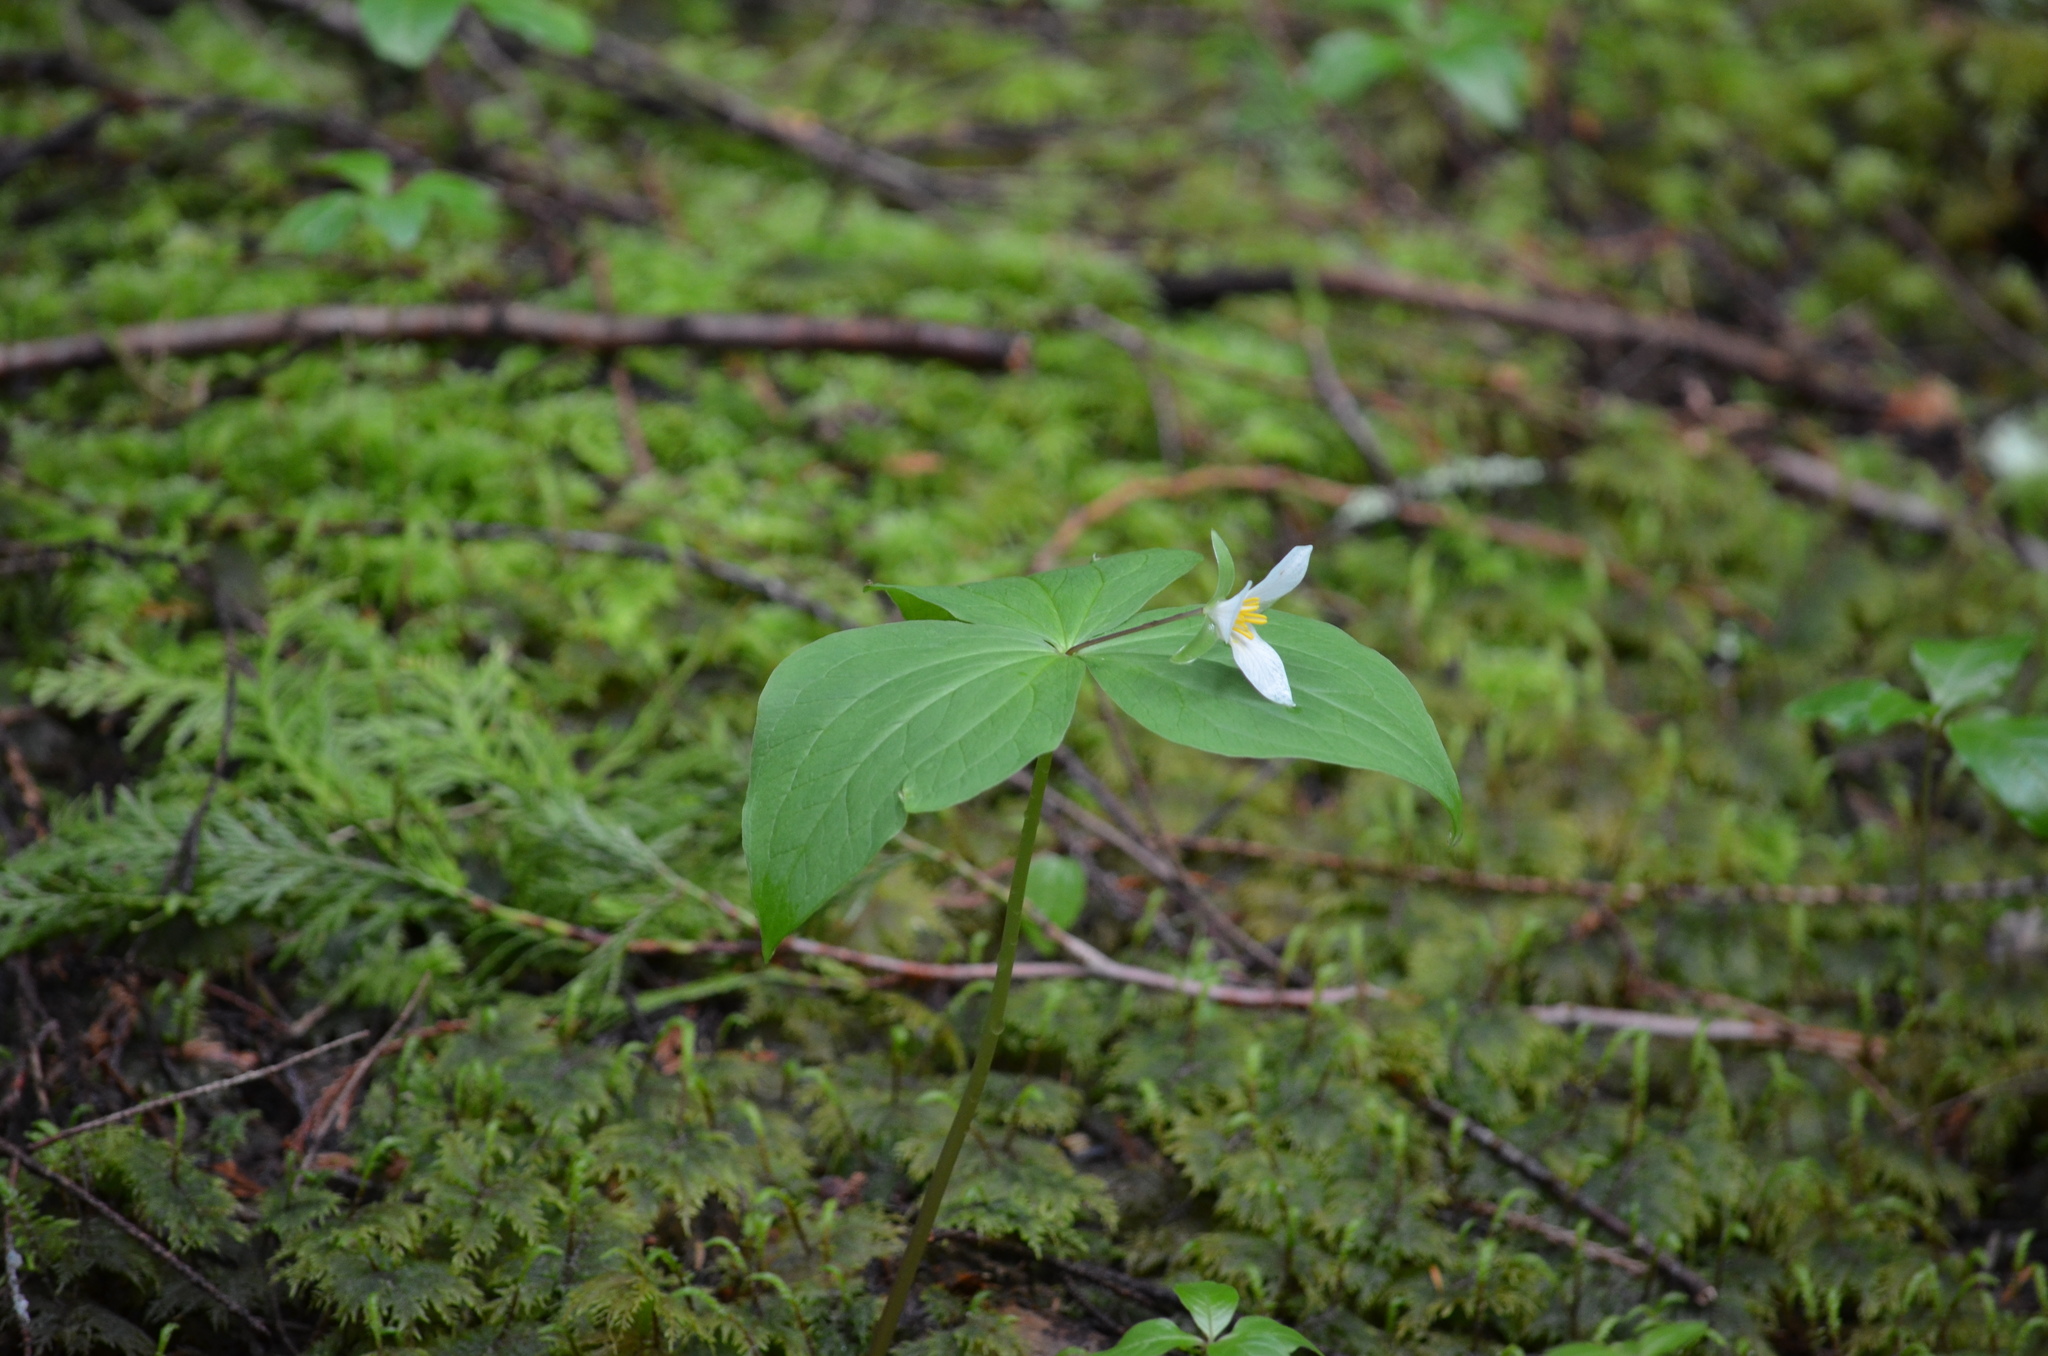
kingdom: Plantae
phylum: Tracheophyta
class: Liliopsida
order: Liliales
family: Melanthiaceae
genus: Trillium
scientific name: Trillium ovatum
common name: Pacific trillium
